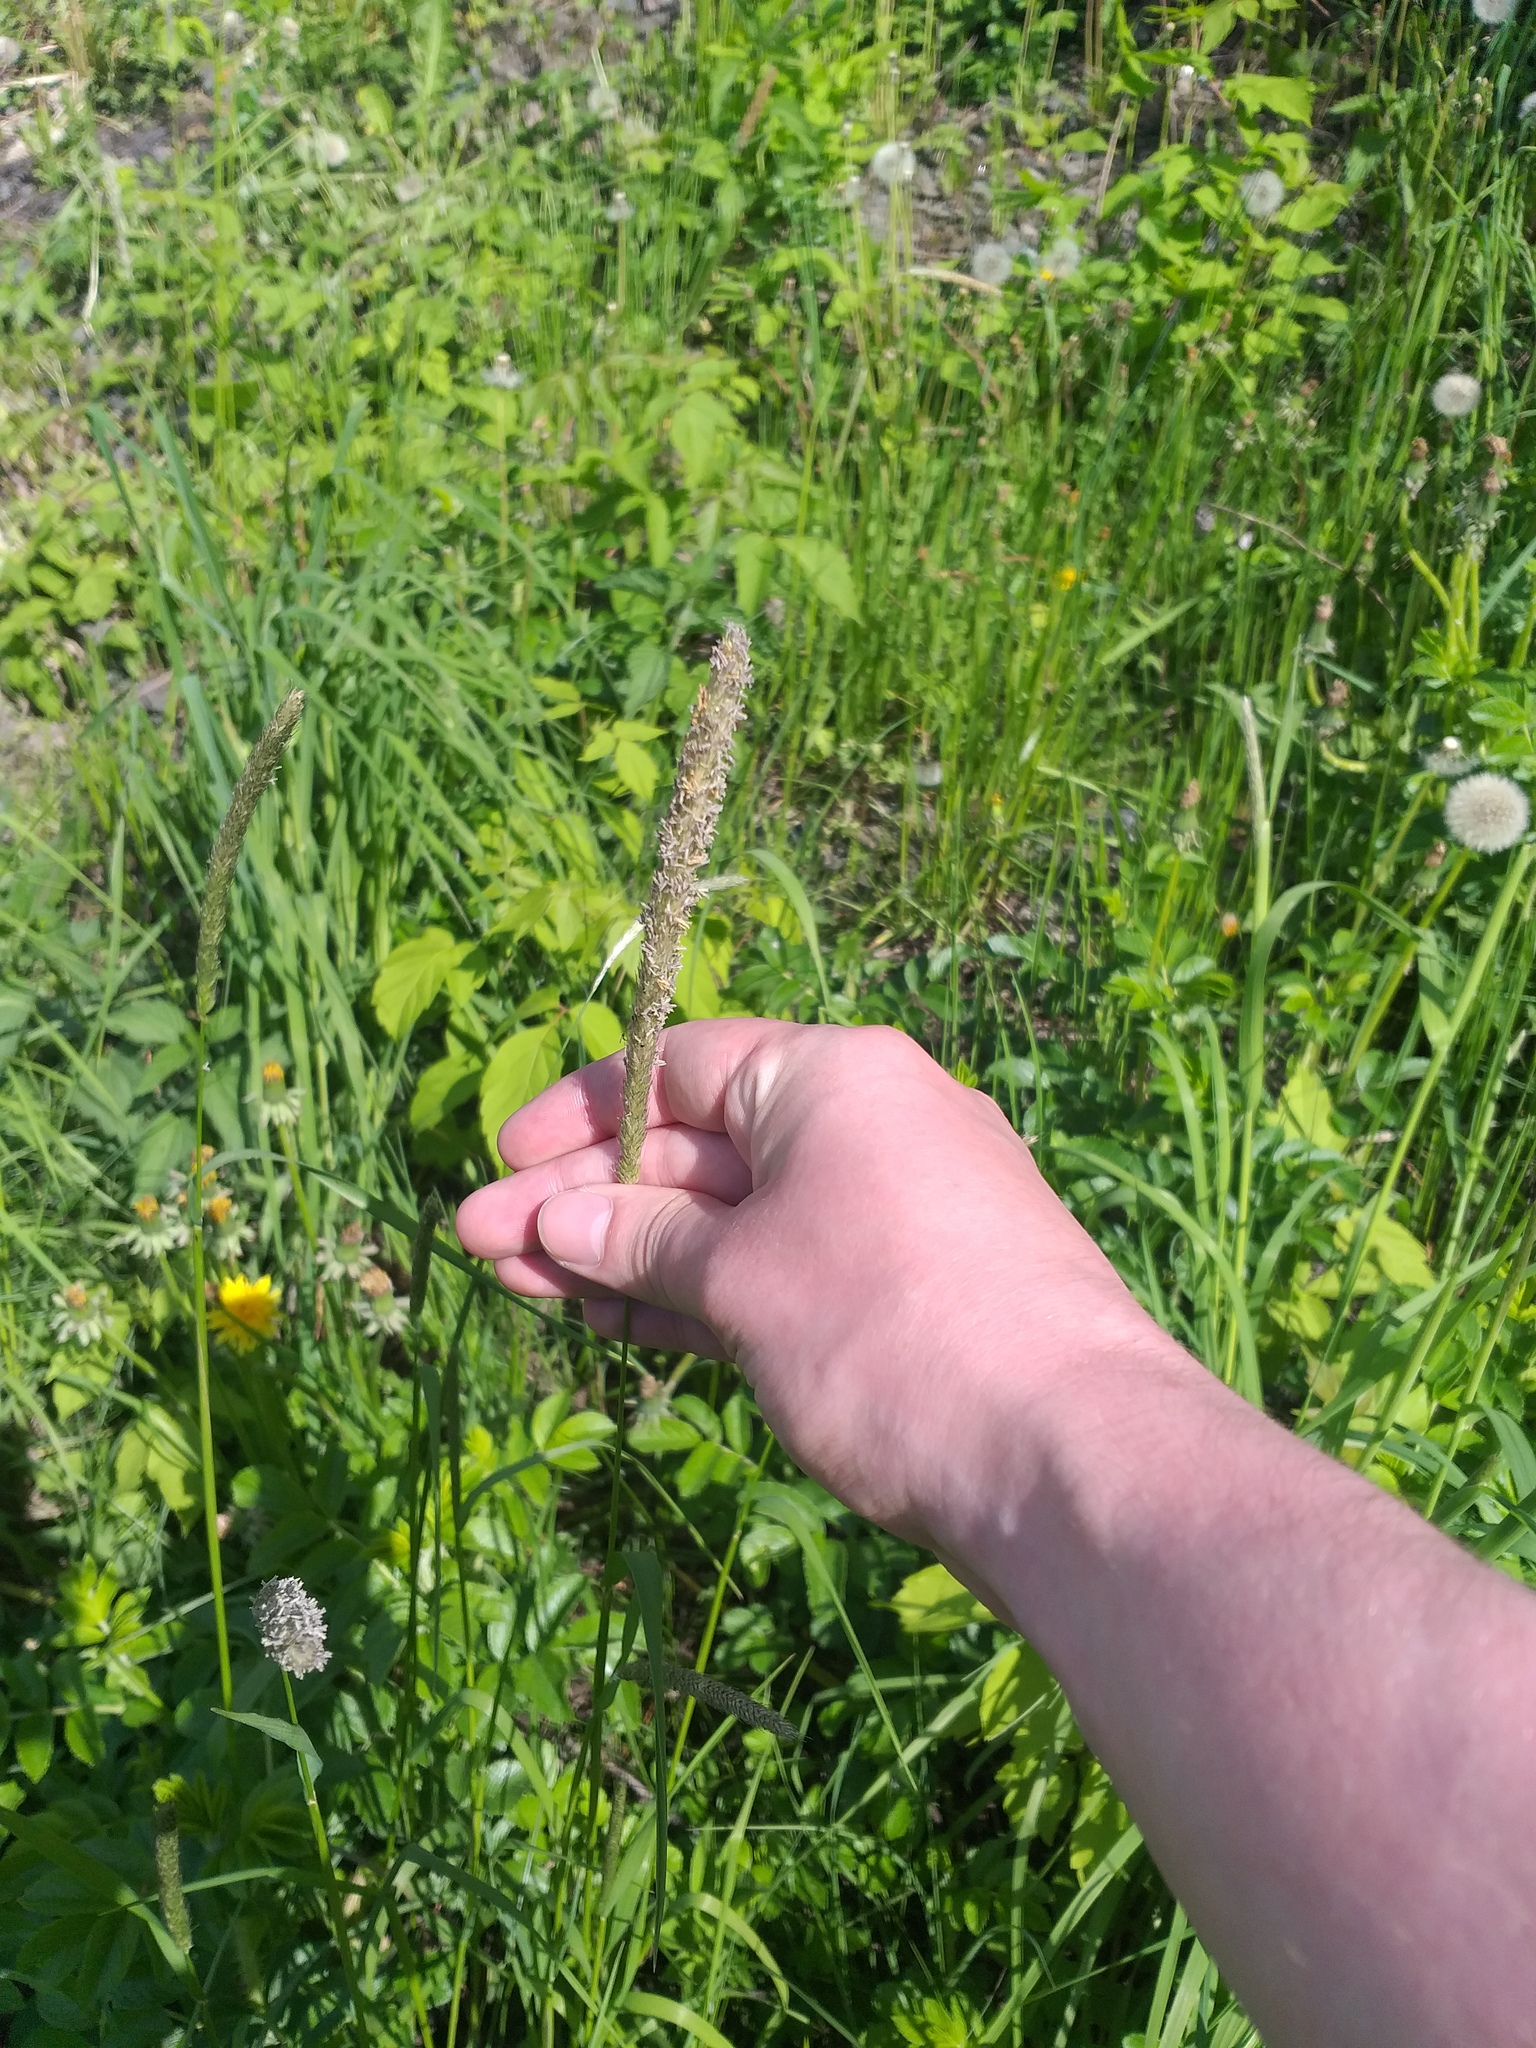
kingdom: Plantae
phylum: Tracheophyta
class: Liliopsida
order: Poales
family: Poaceae
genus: Alopecurus
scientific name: Alopecurus pratensis
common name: Meadow foxtail
